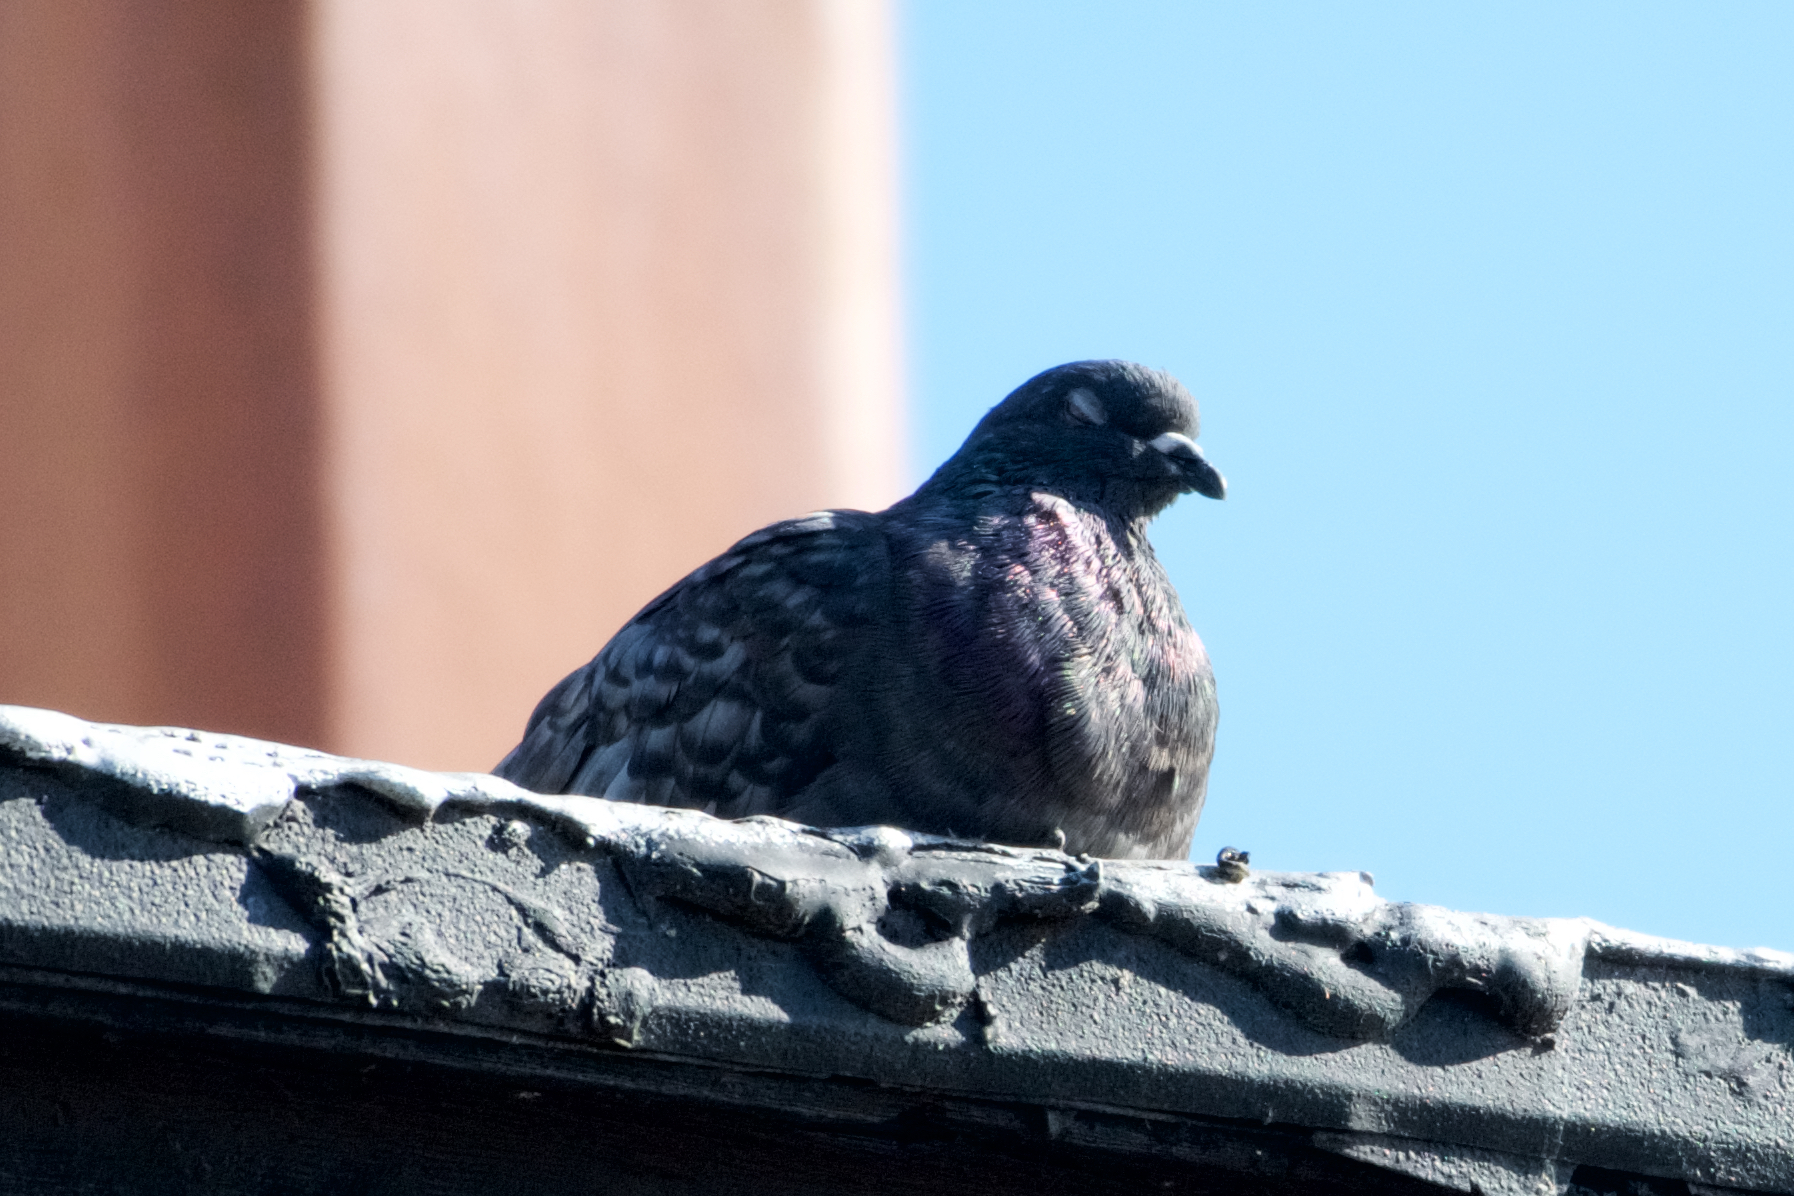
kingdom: Animalia
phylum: Chordata
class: Aves
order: Columbiformes
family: Columbidae
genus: Columba
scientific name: Columba livia
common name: Rock pigeon
